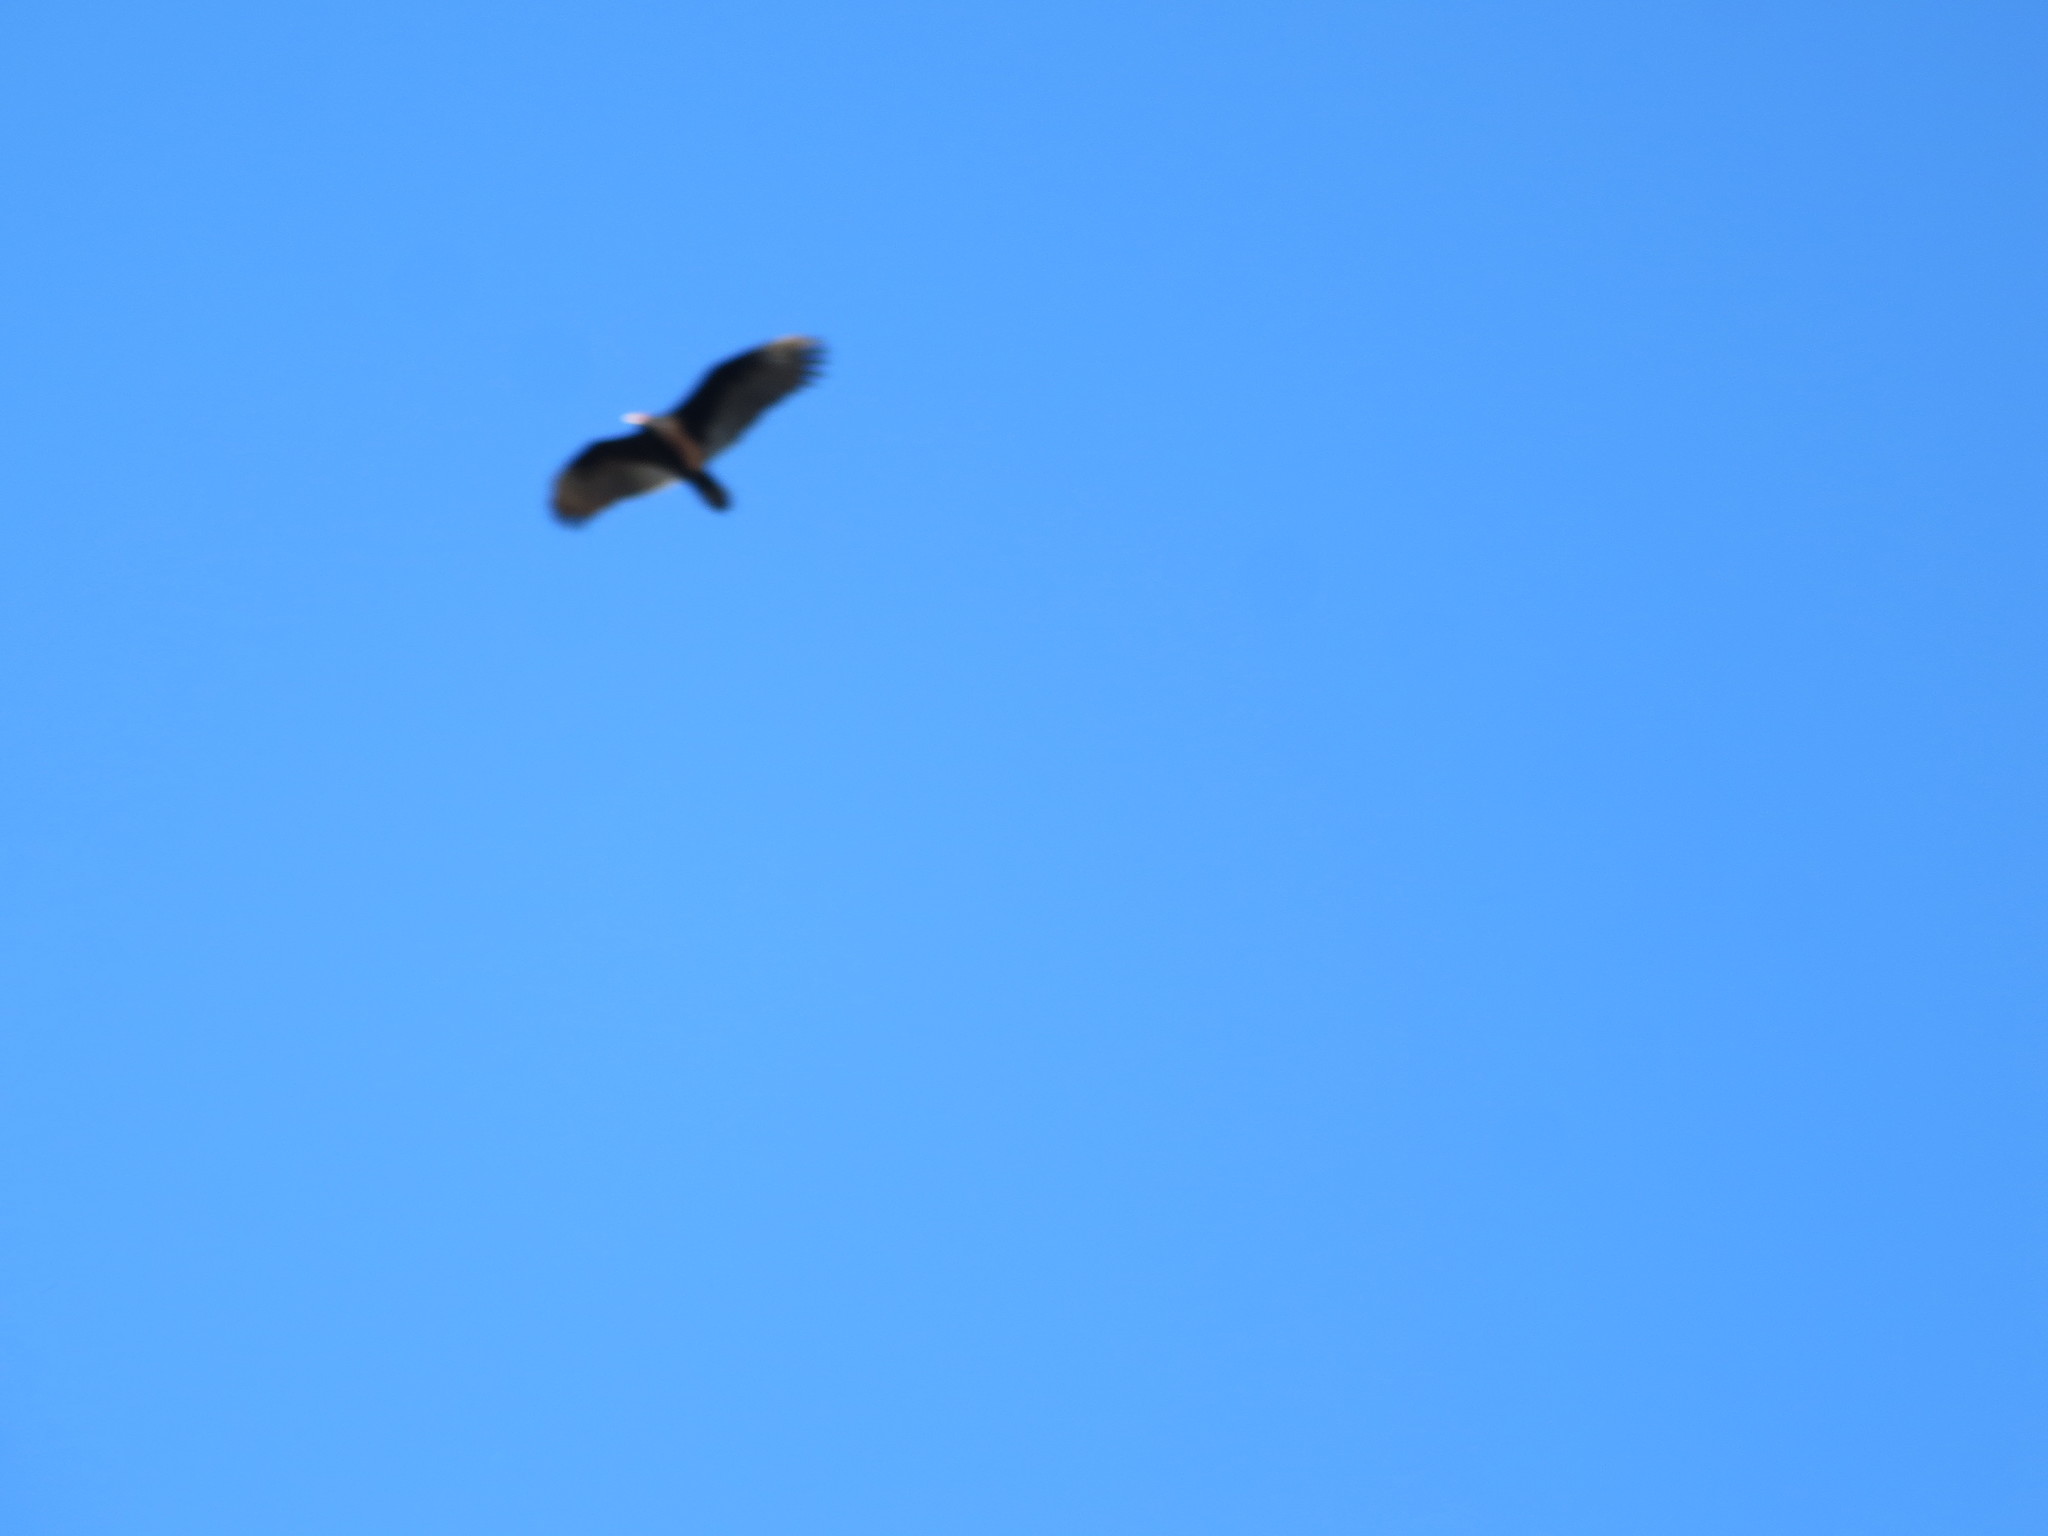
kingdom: Animalia
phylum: Chordata
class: Aves
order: Accipitriformes
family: Cathartidae
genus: Cathartes
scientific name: Cathartes aura
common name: Turkey vulture
